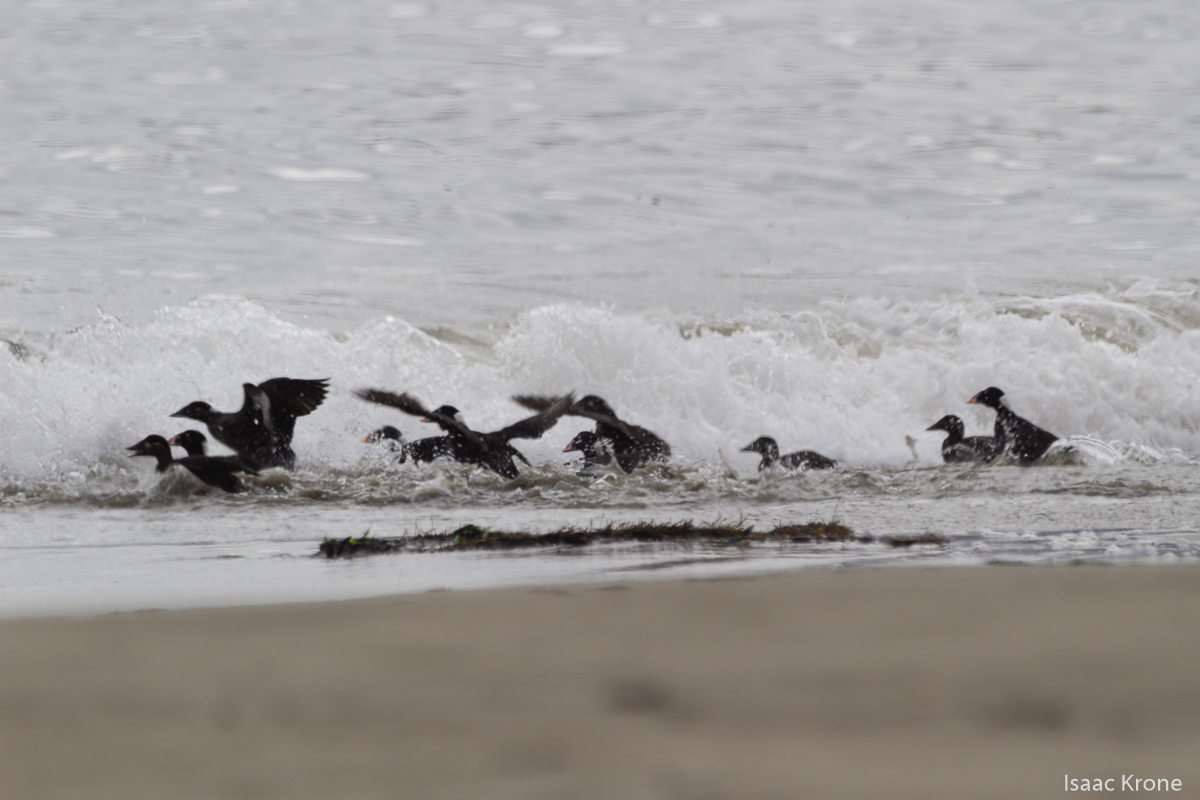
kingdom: Animalia
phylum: Chordata
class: Aves
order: Anseriformes
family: Anatidae
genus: Melanitta
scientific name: Melanitta perspicillata
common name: Surf scoter
